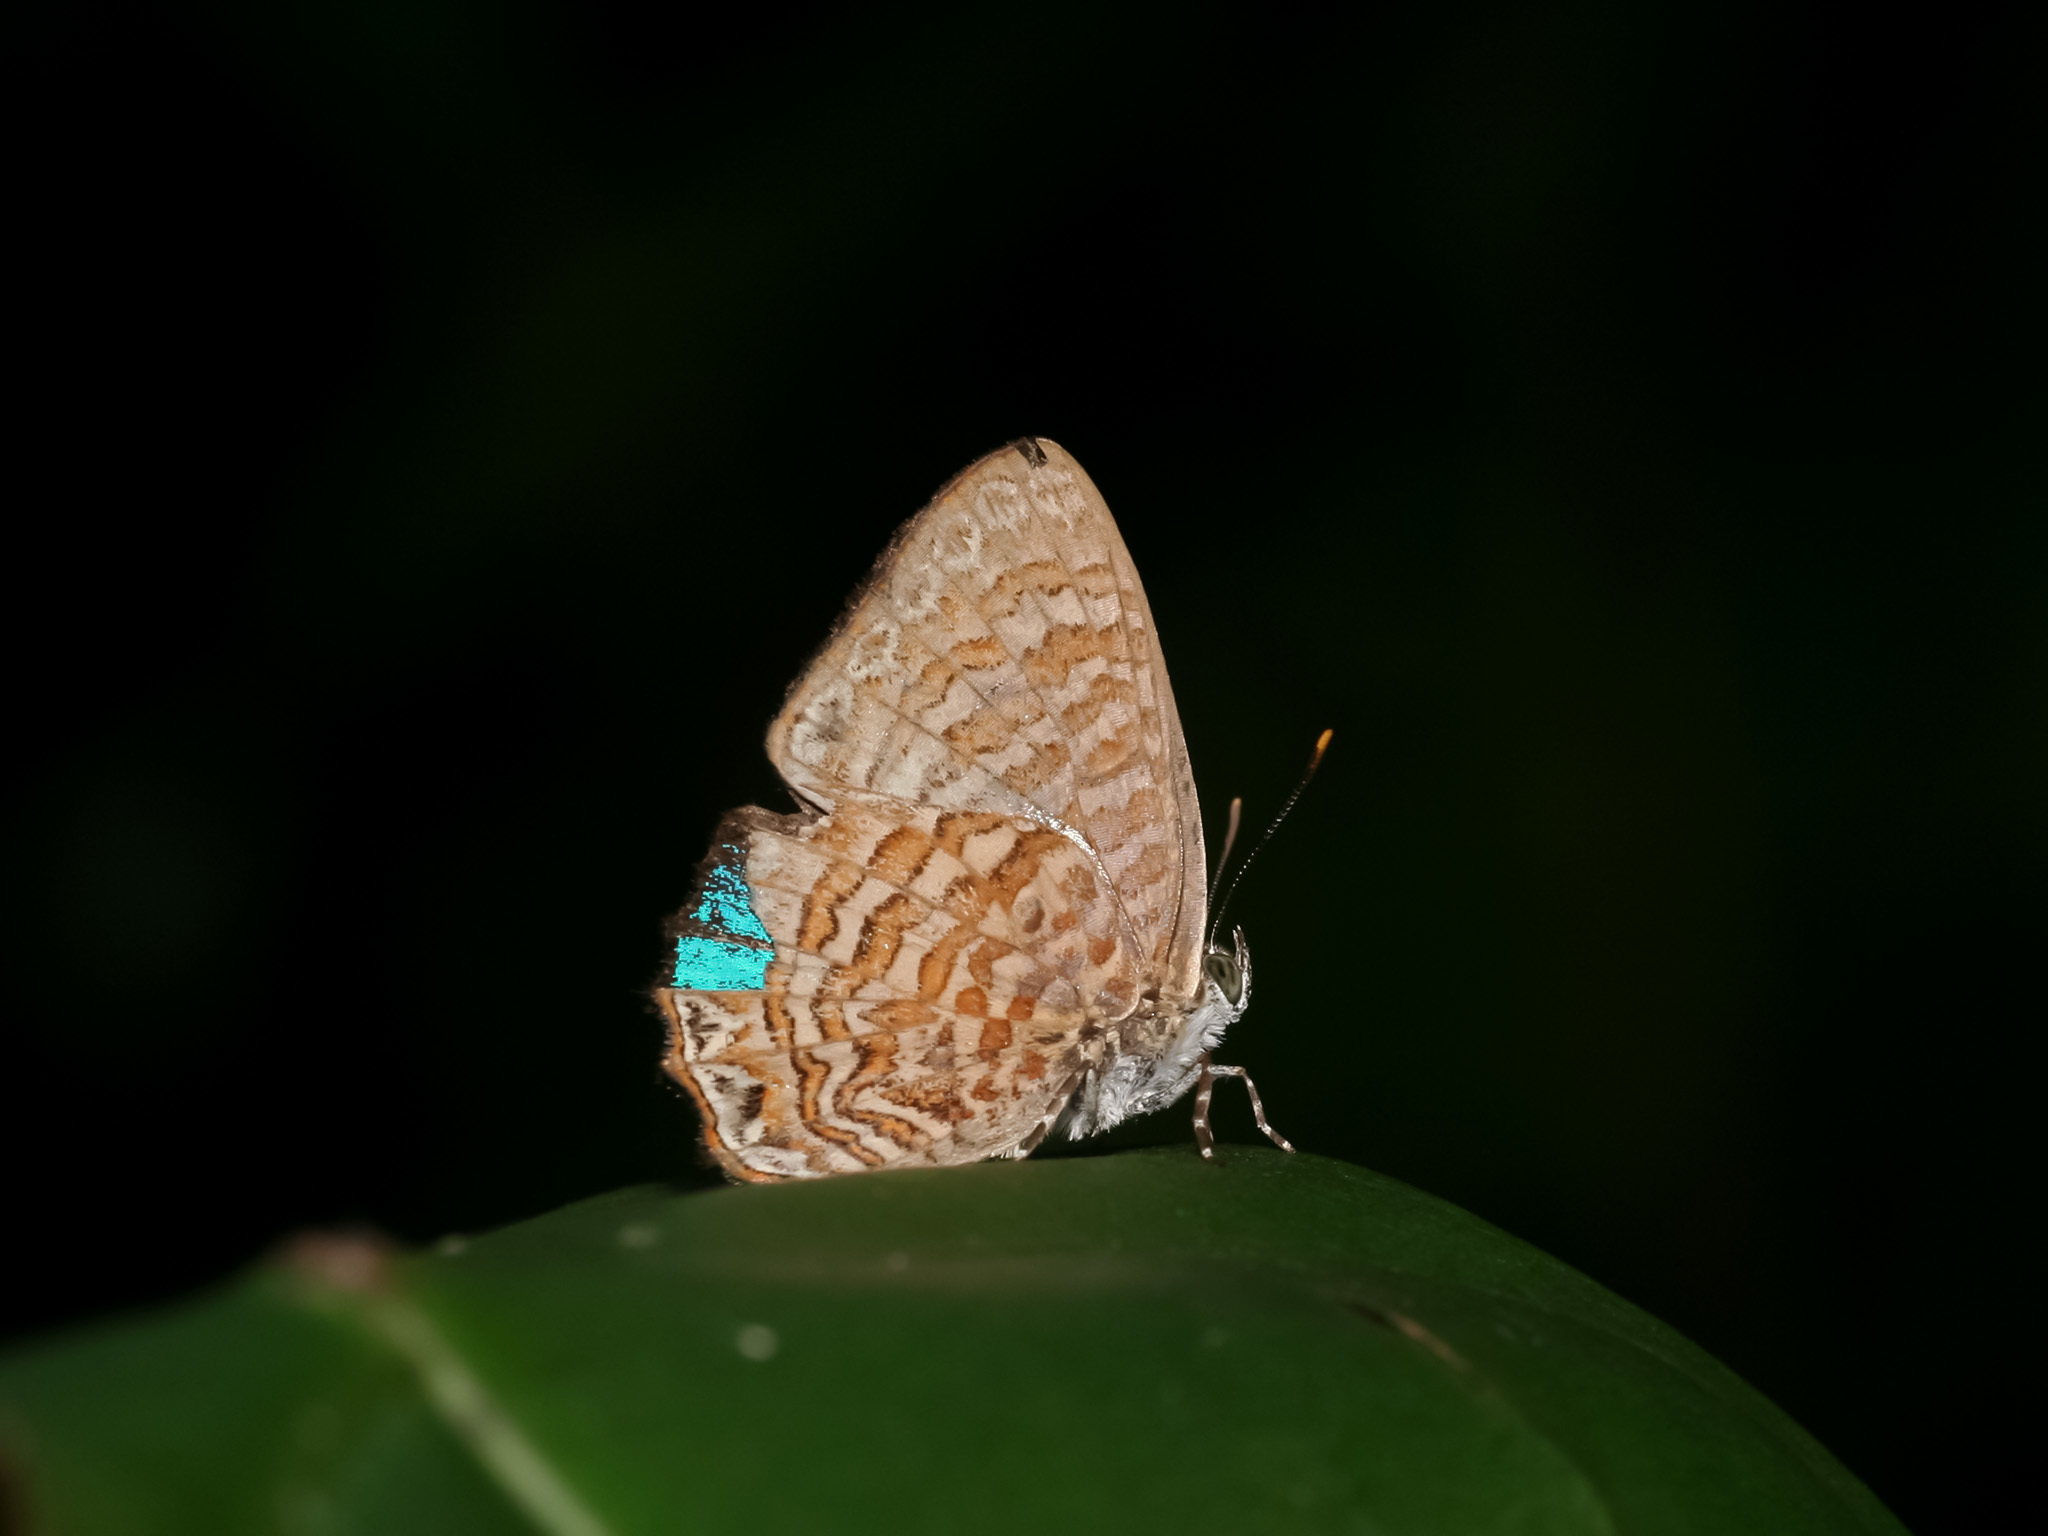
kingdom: Animalia
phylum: Arthropoda
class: Insecta
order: Lepidoptera
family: Lycaenidae
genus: Poritia
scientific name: Poritia sumatrae
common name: Sumatran gem
